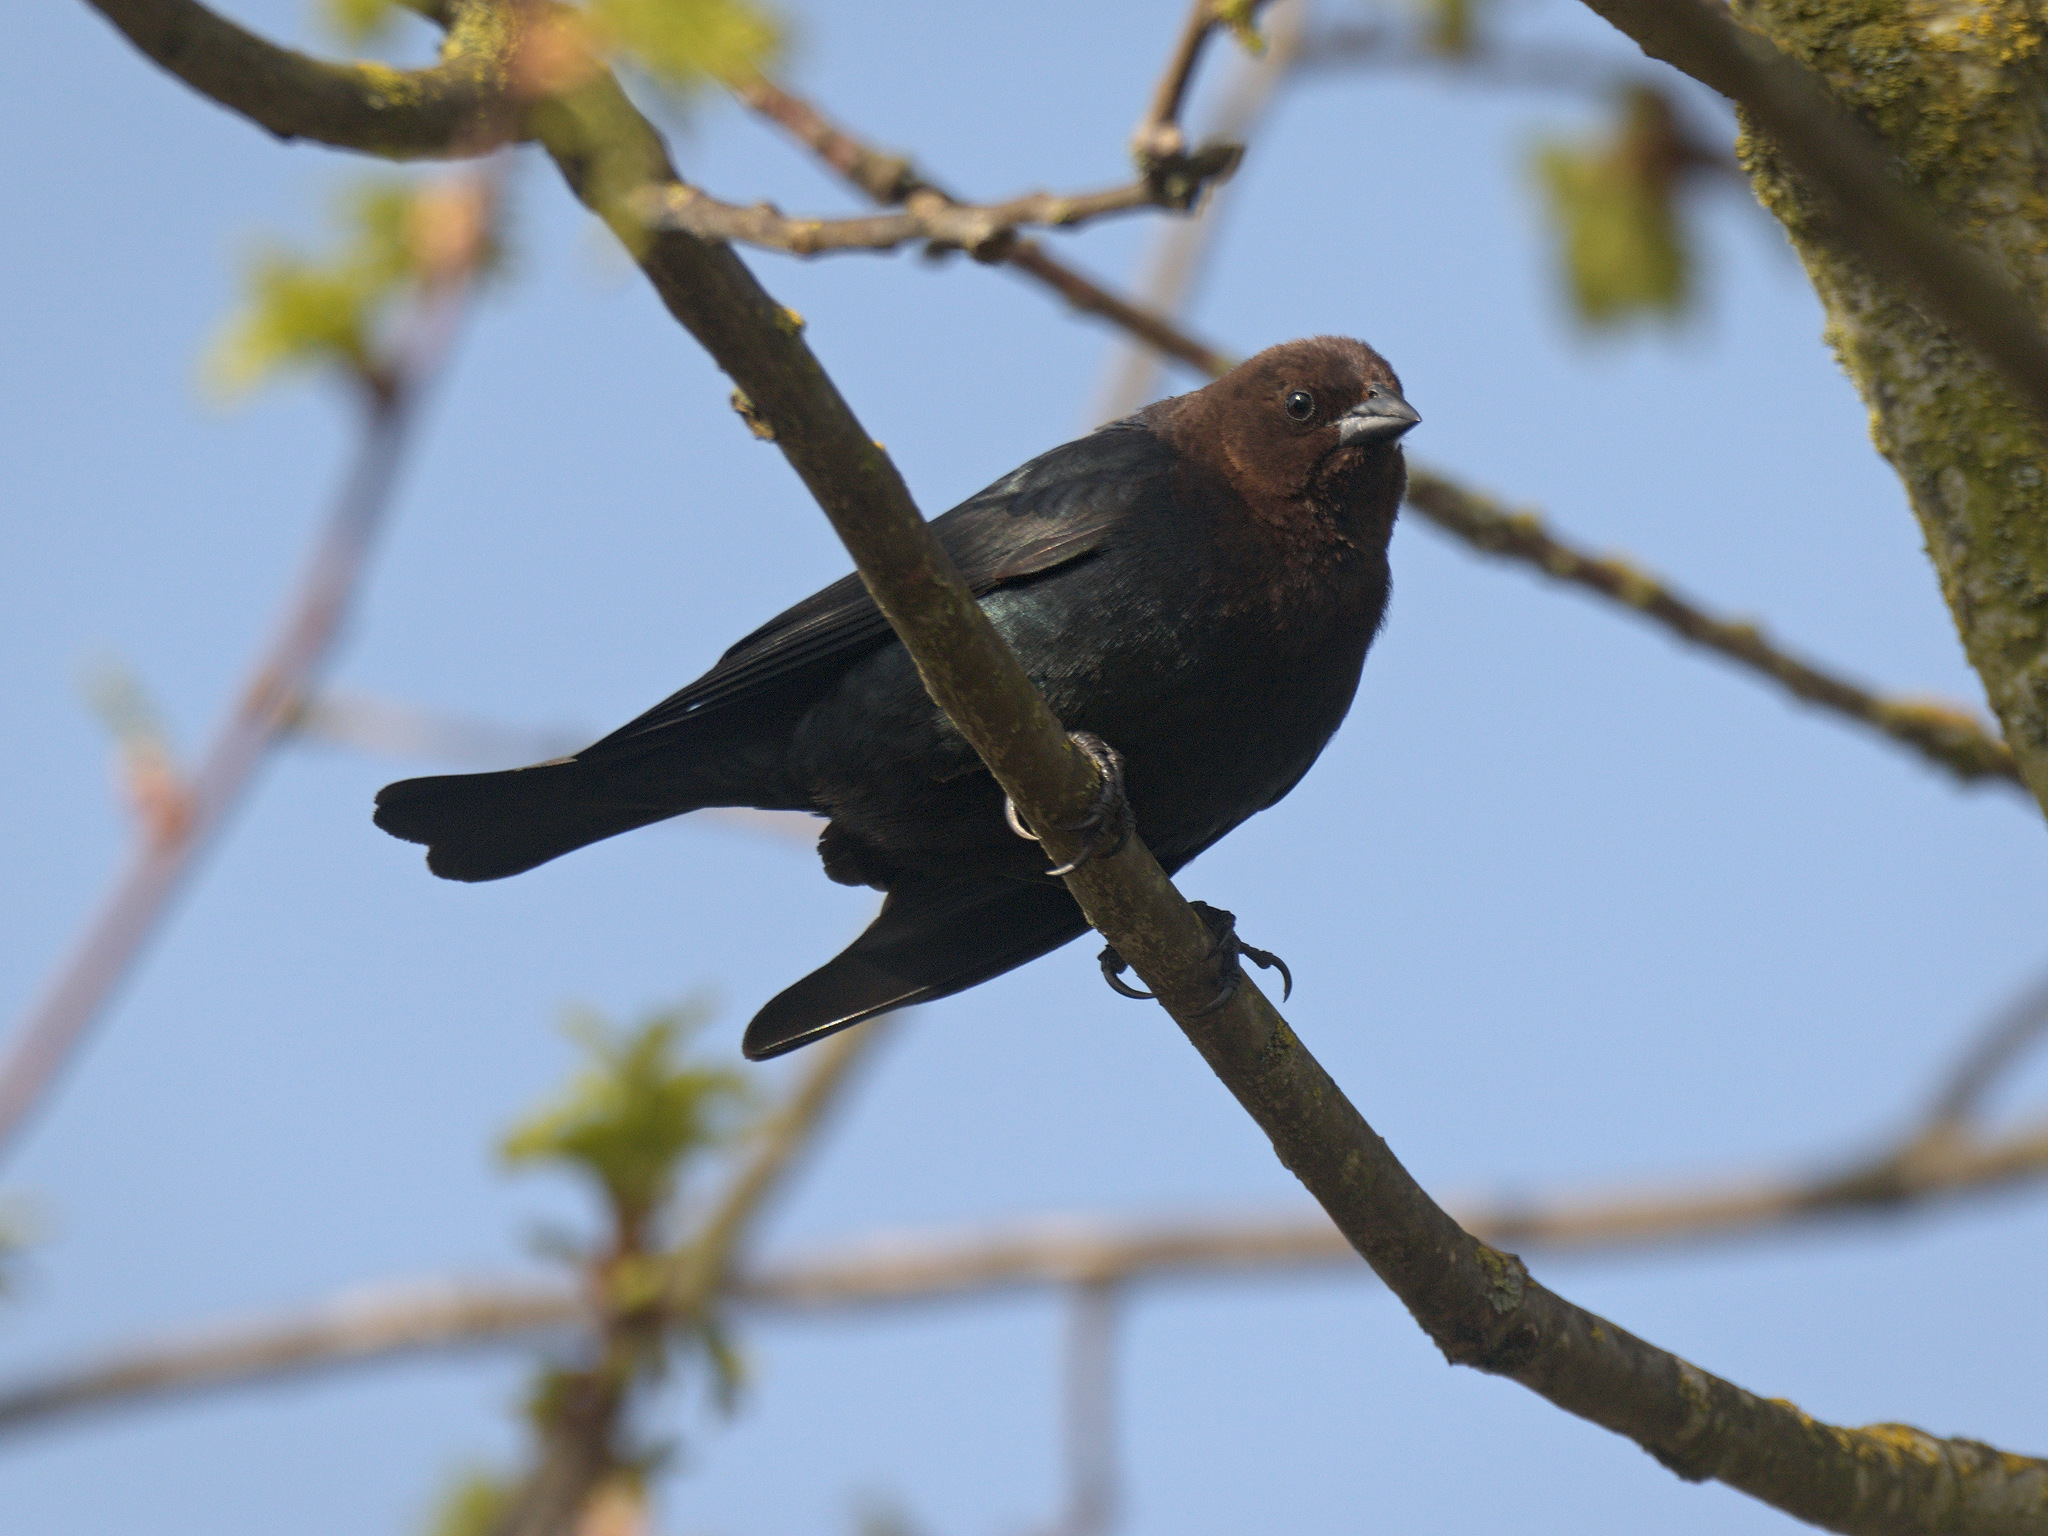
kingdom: Animalia
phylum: Chordata
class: Aves
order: Passeriformes
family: Icteridae
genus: Molothrus
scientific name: Molothrus ater
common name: Brown-headed cowbird
